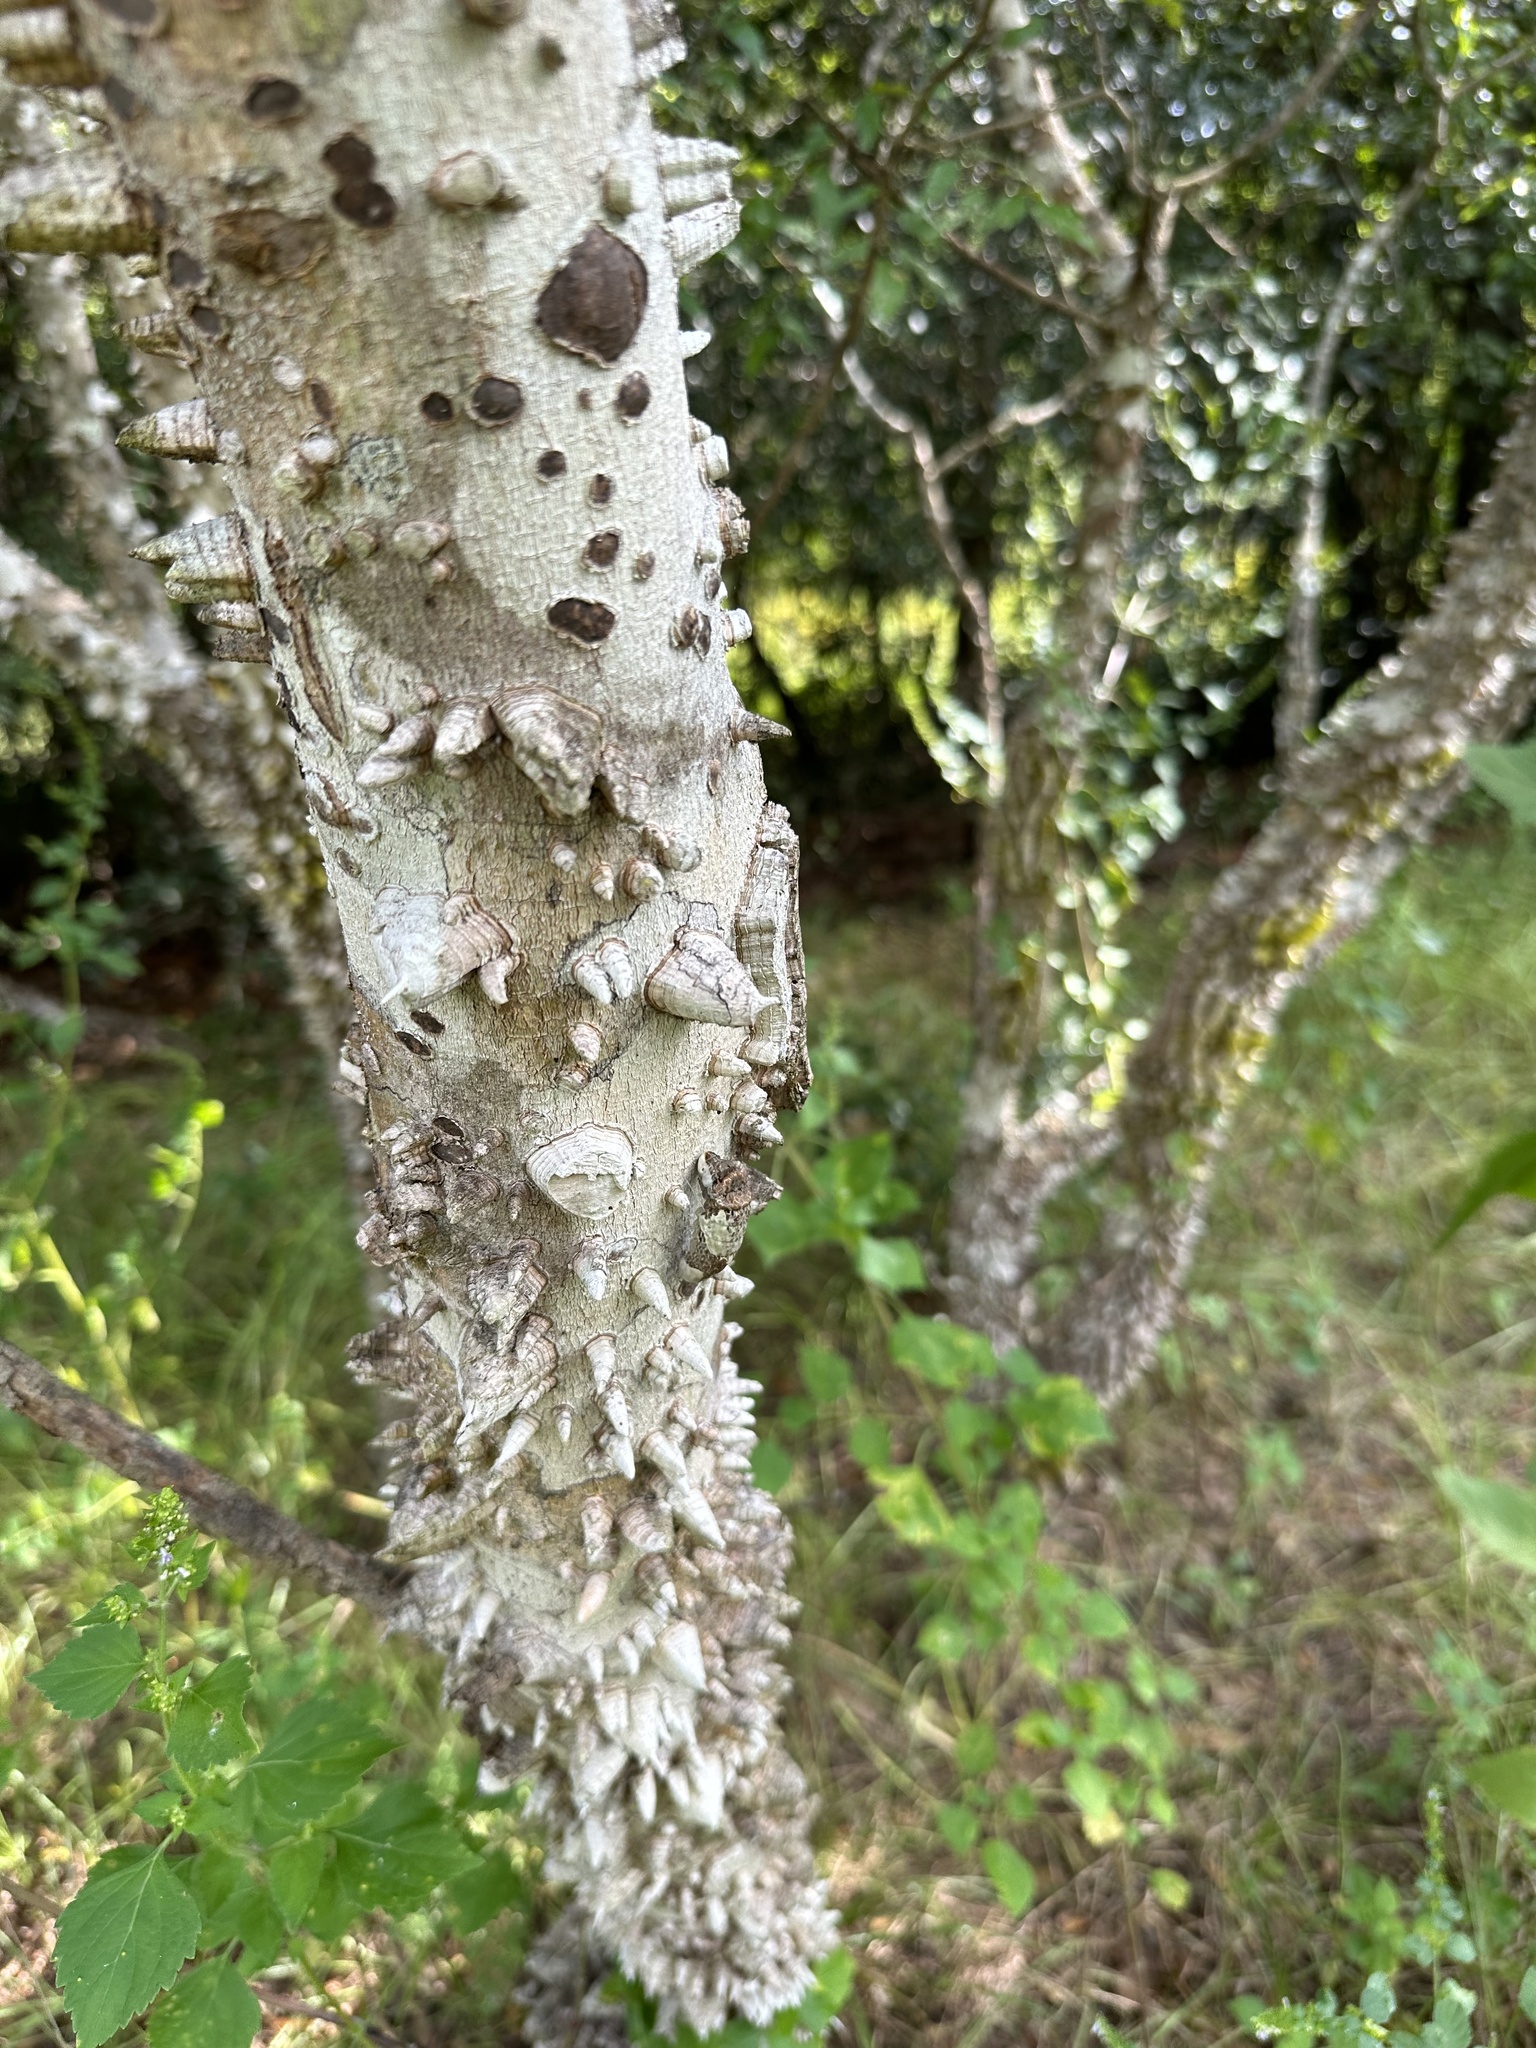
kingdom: Plantae
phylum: Tracheophyta
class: Magnoliopsida
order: Sapindales
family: Rutaceae
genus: Zanthoxylum
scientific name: Zanthoxylum clava-herculis
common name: Hercules'-club
